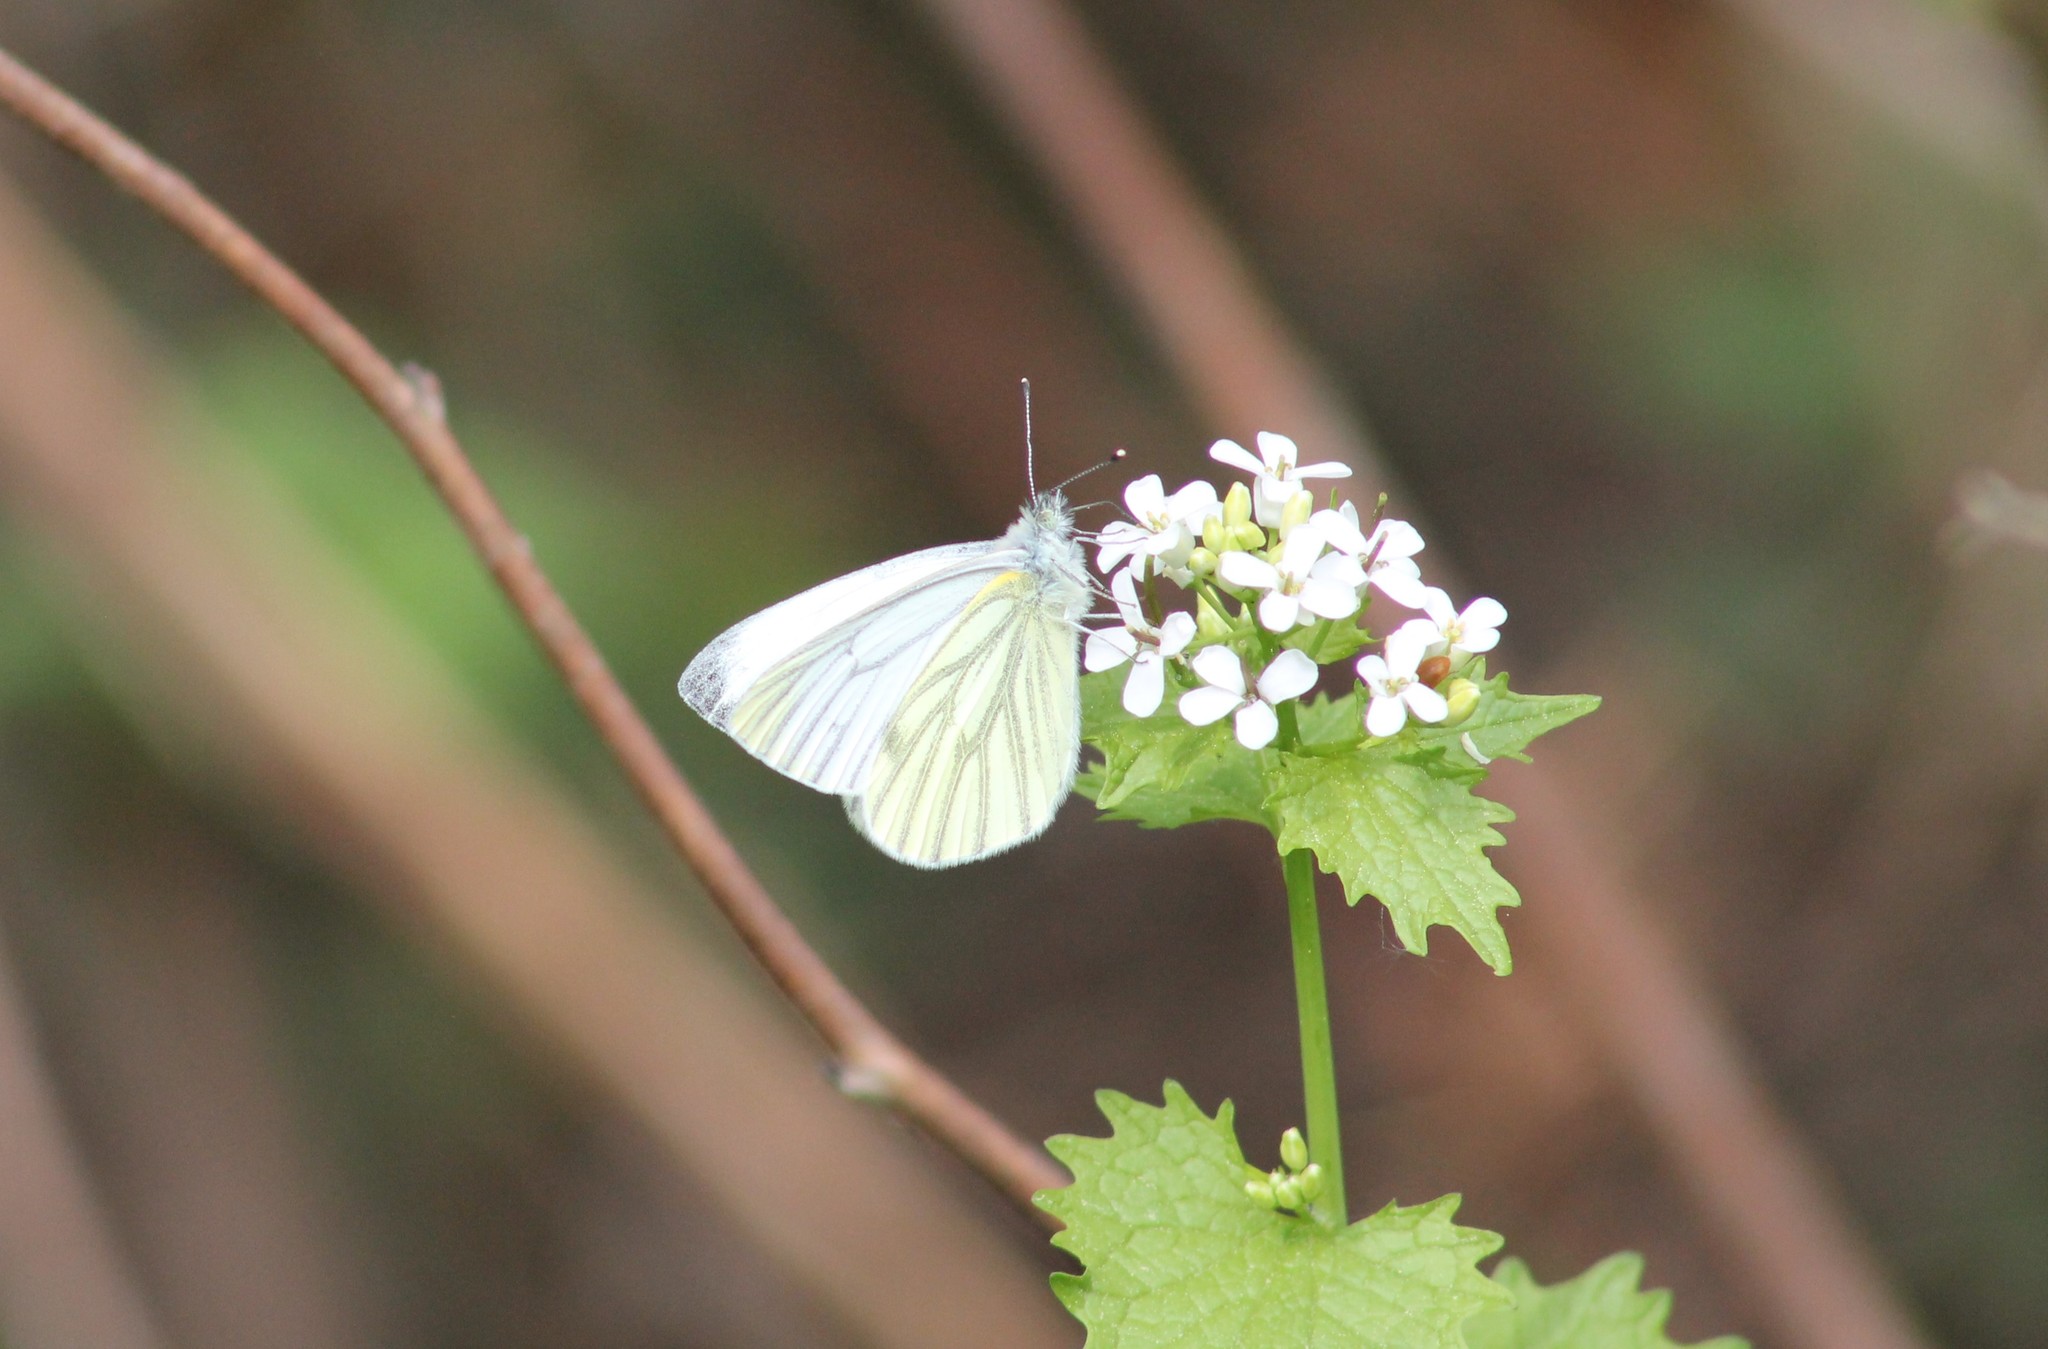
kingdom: Animalia
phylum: Arthropoda
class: Insecta
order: Lepidoptera
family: Pieridae
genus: Pieris
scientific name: Pieris napi
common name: Green-veined white
